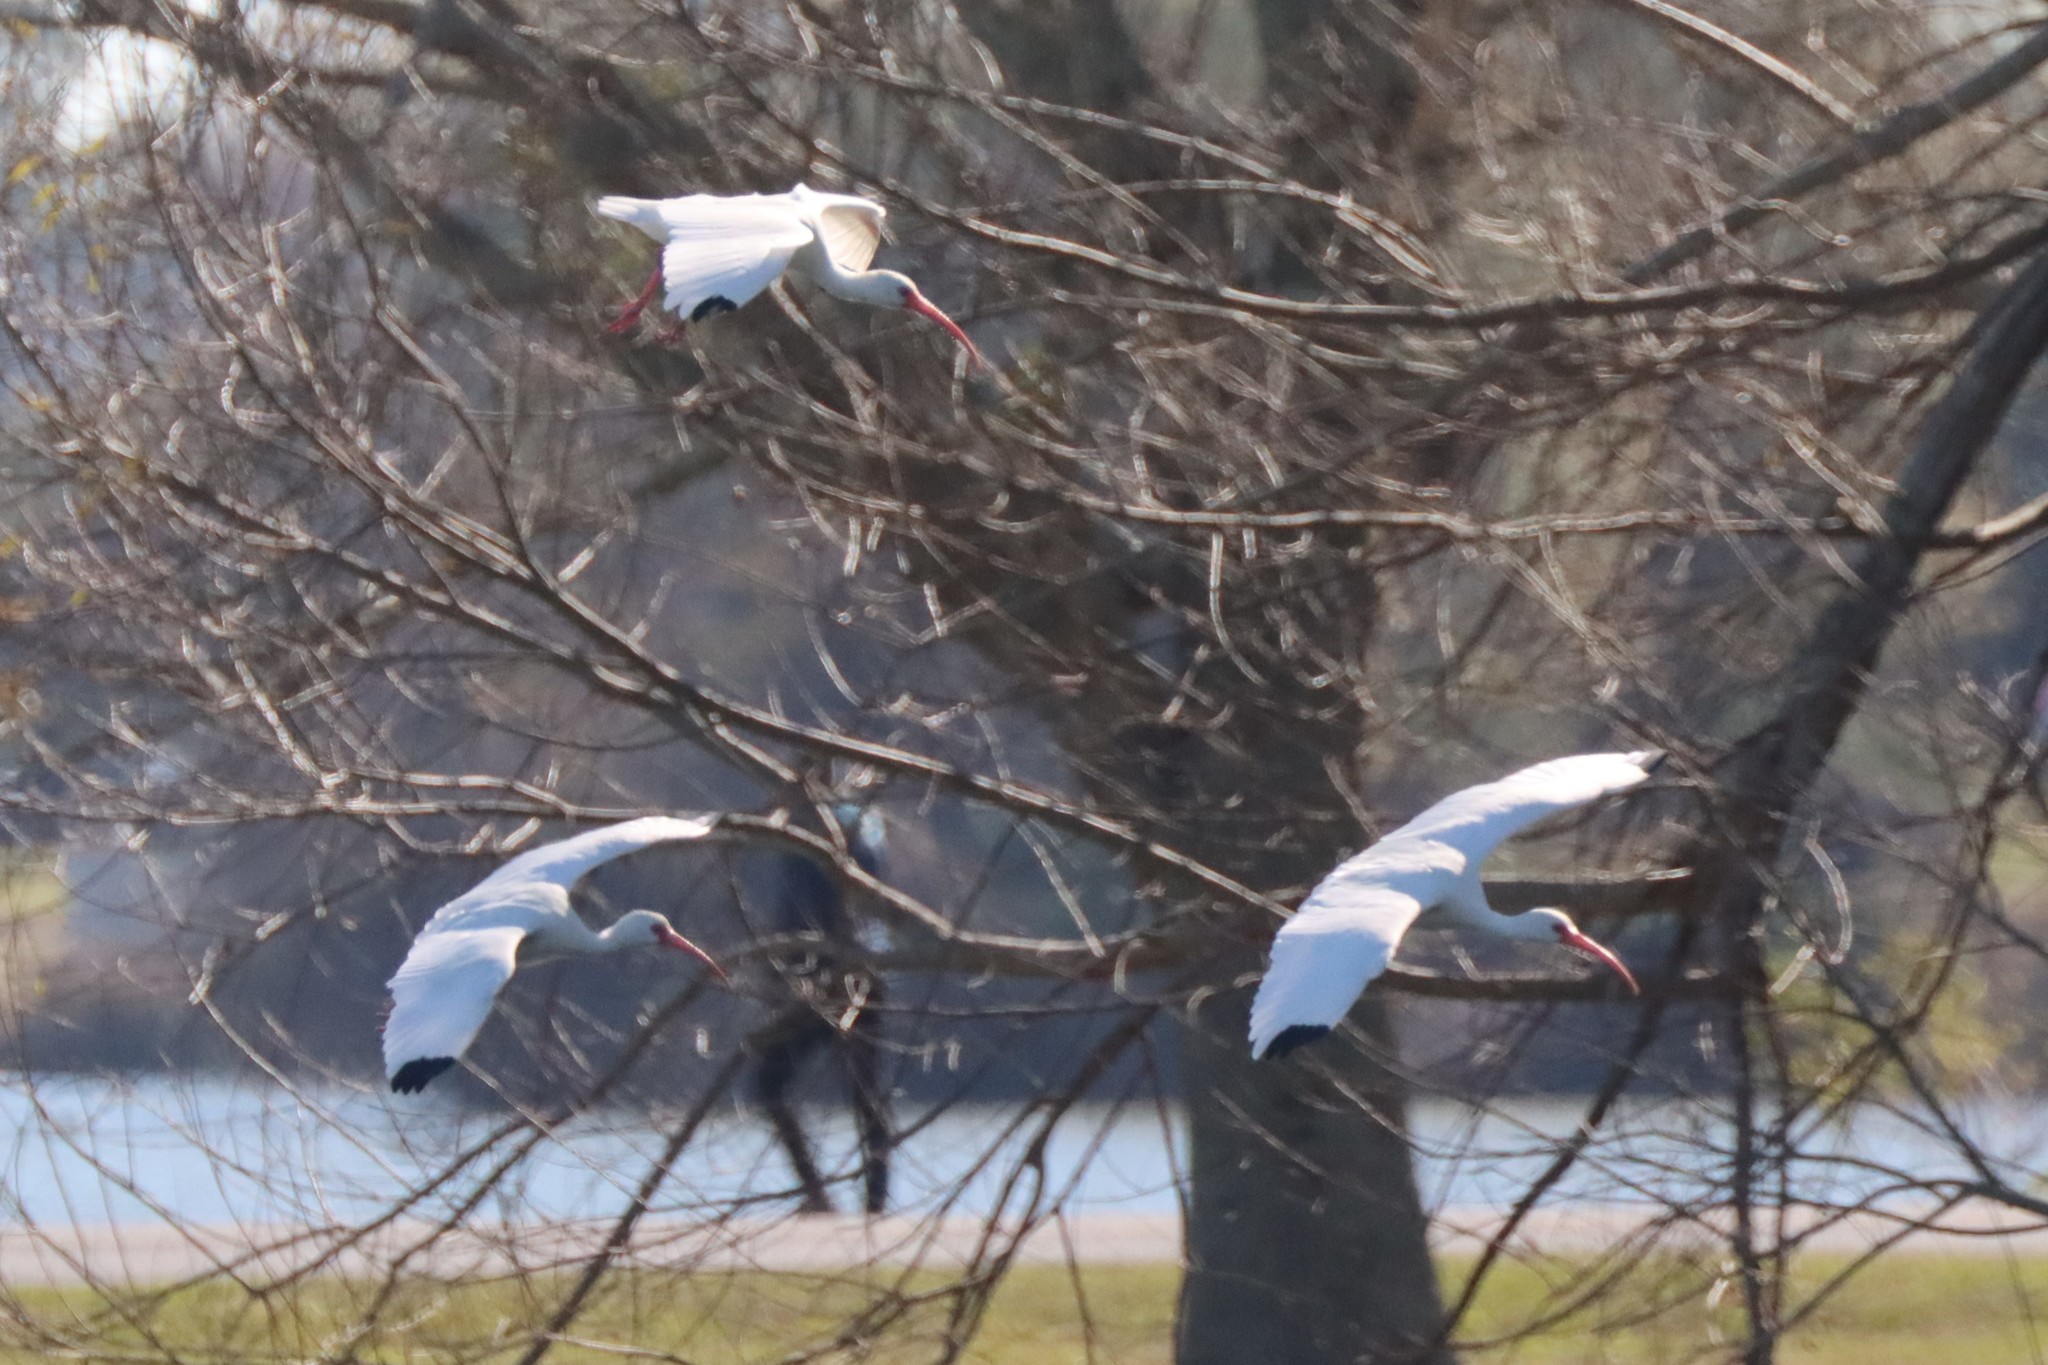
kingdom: Animalia
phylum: Chordata
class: Aves
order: Pelecaniformes
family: Threskiornithidae
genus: Eudocimus
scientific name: Eudocimus albus
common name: White ibis
